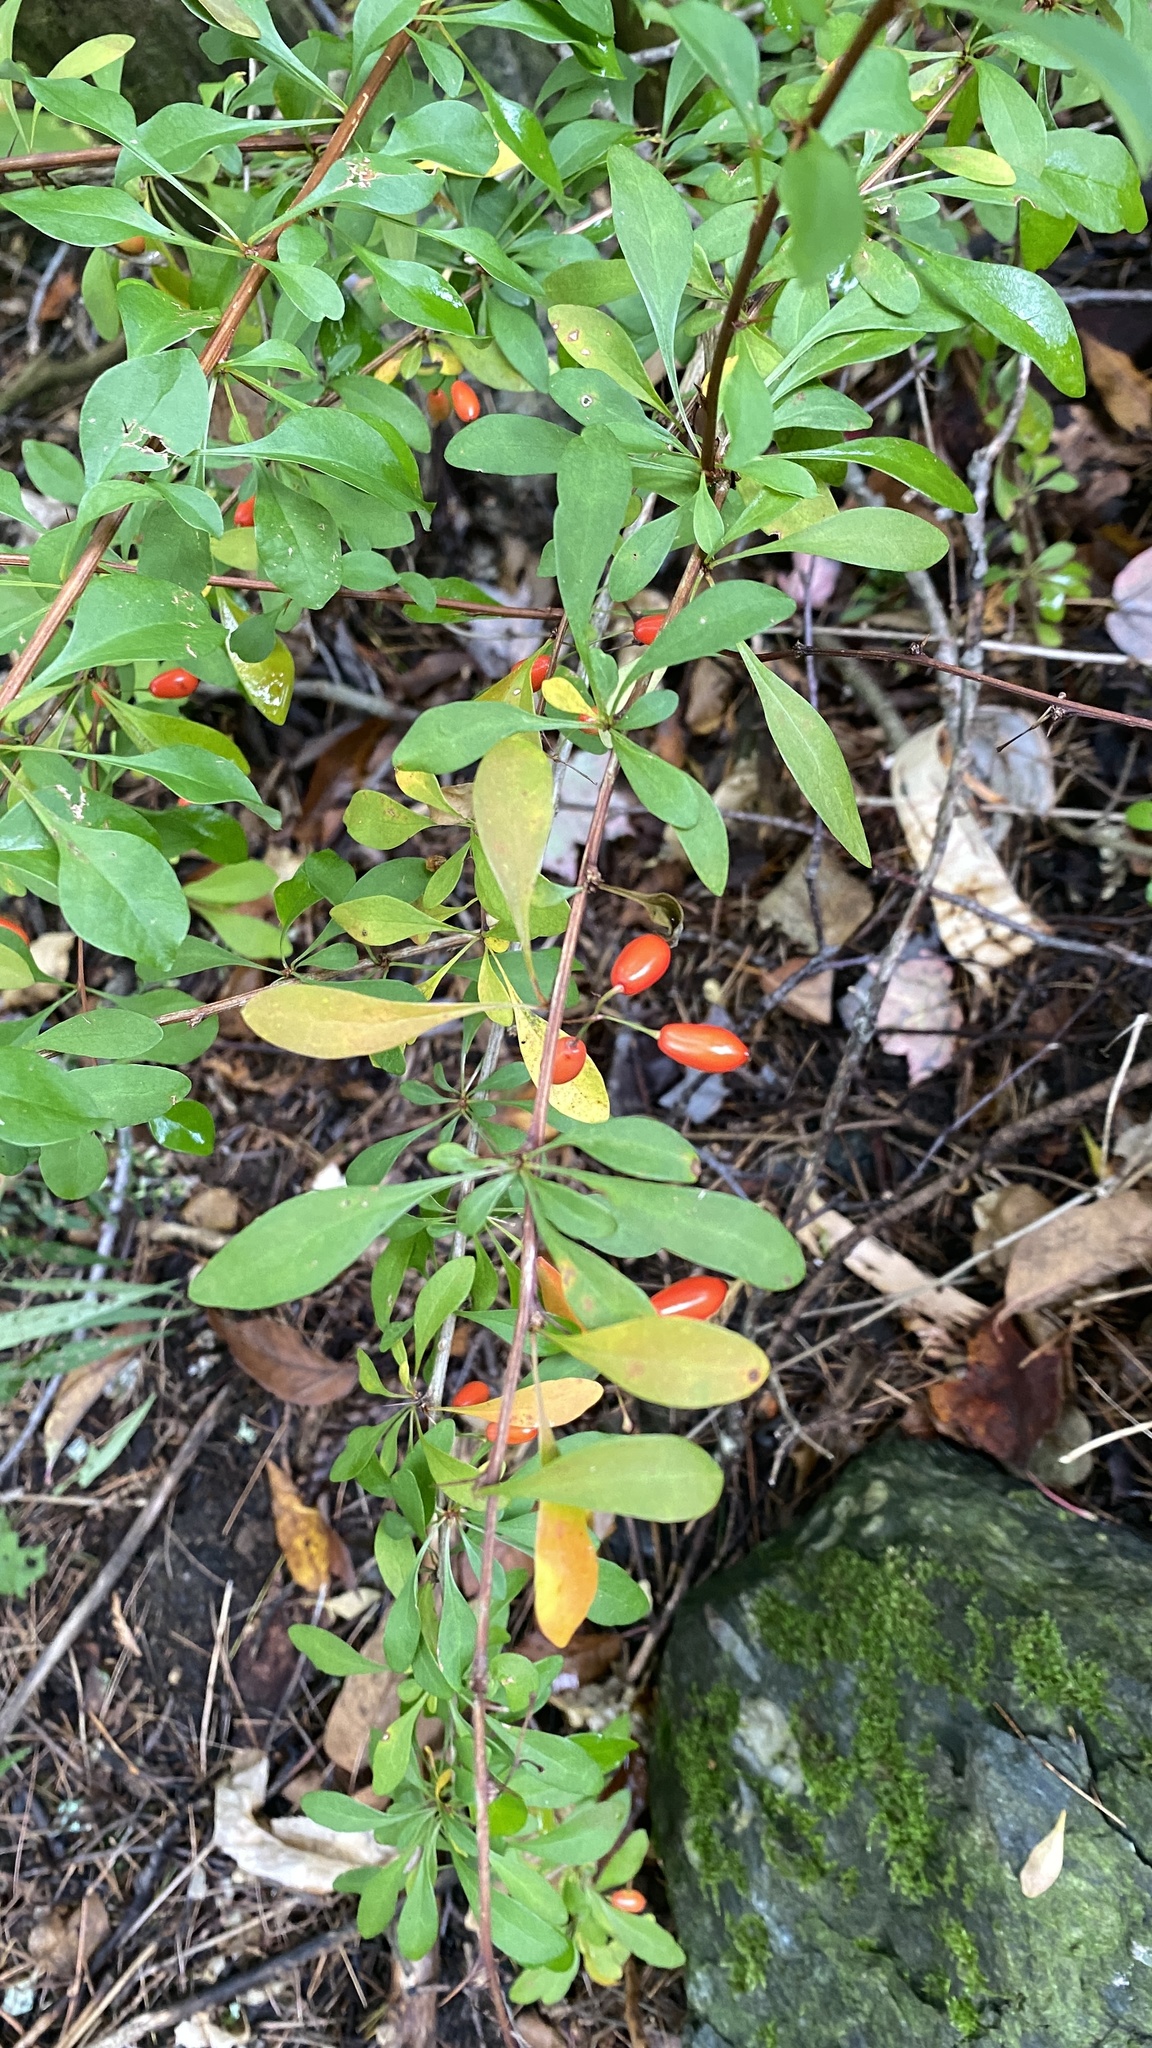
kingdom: Plantae
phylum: Tracheophyta
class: Magnoliopsida
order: Ranunculales
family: Berberidaceae
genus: Berberis
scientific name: Berberis thunbergii
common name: Japanese barberry
